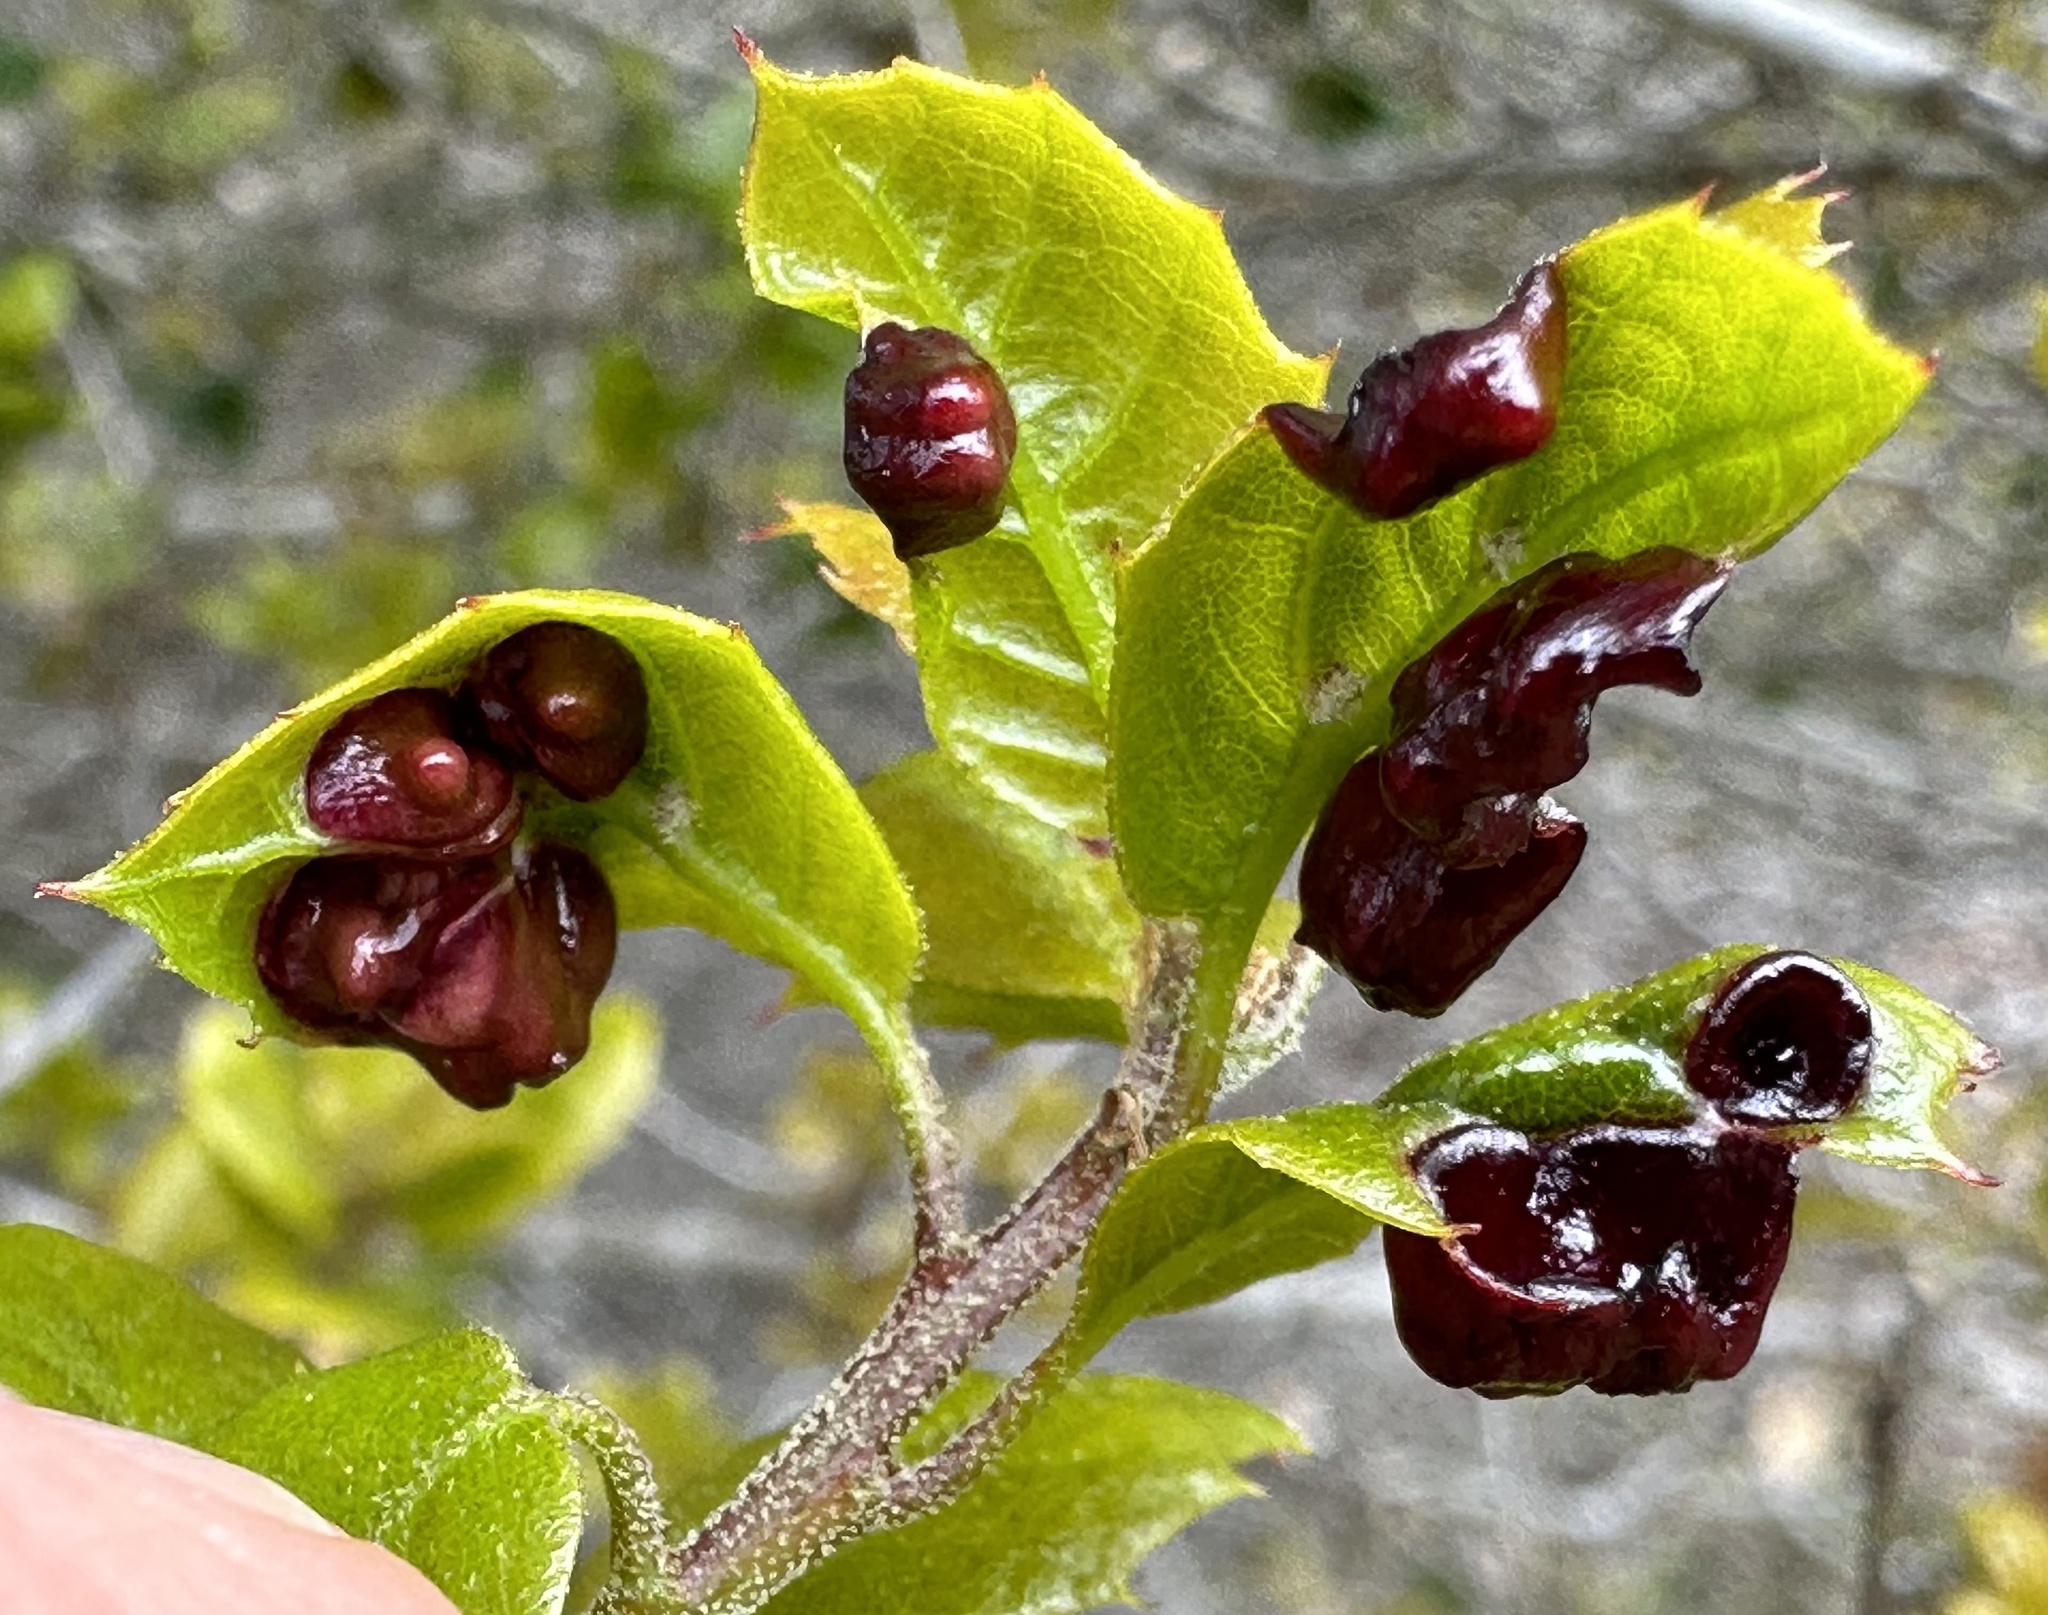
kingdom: Animalia
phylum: Arthropoda
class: Insecta
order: Hymenoptera
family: Cynipidae
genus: Dryocosmus
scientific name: Dryocosmus
